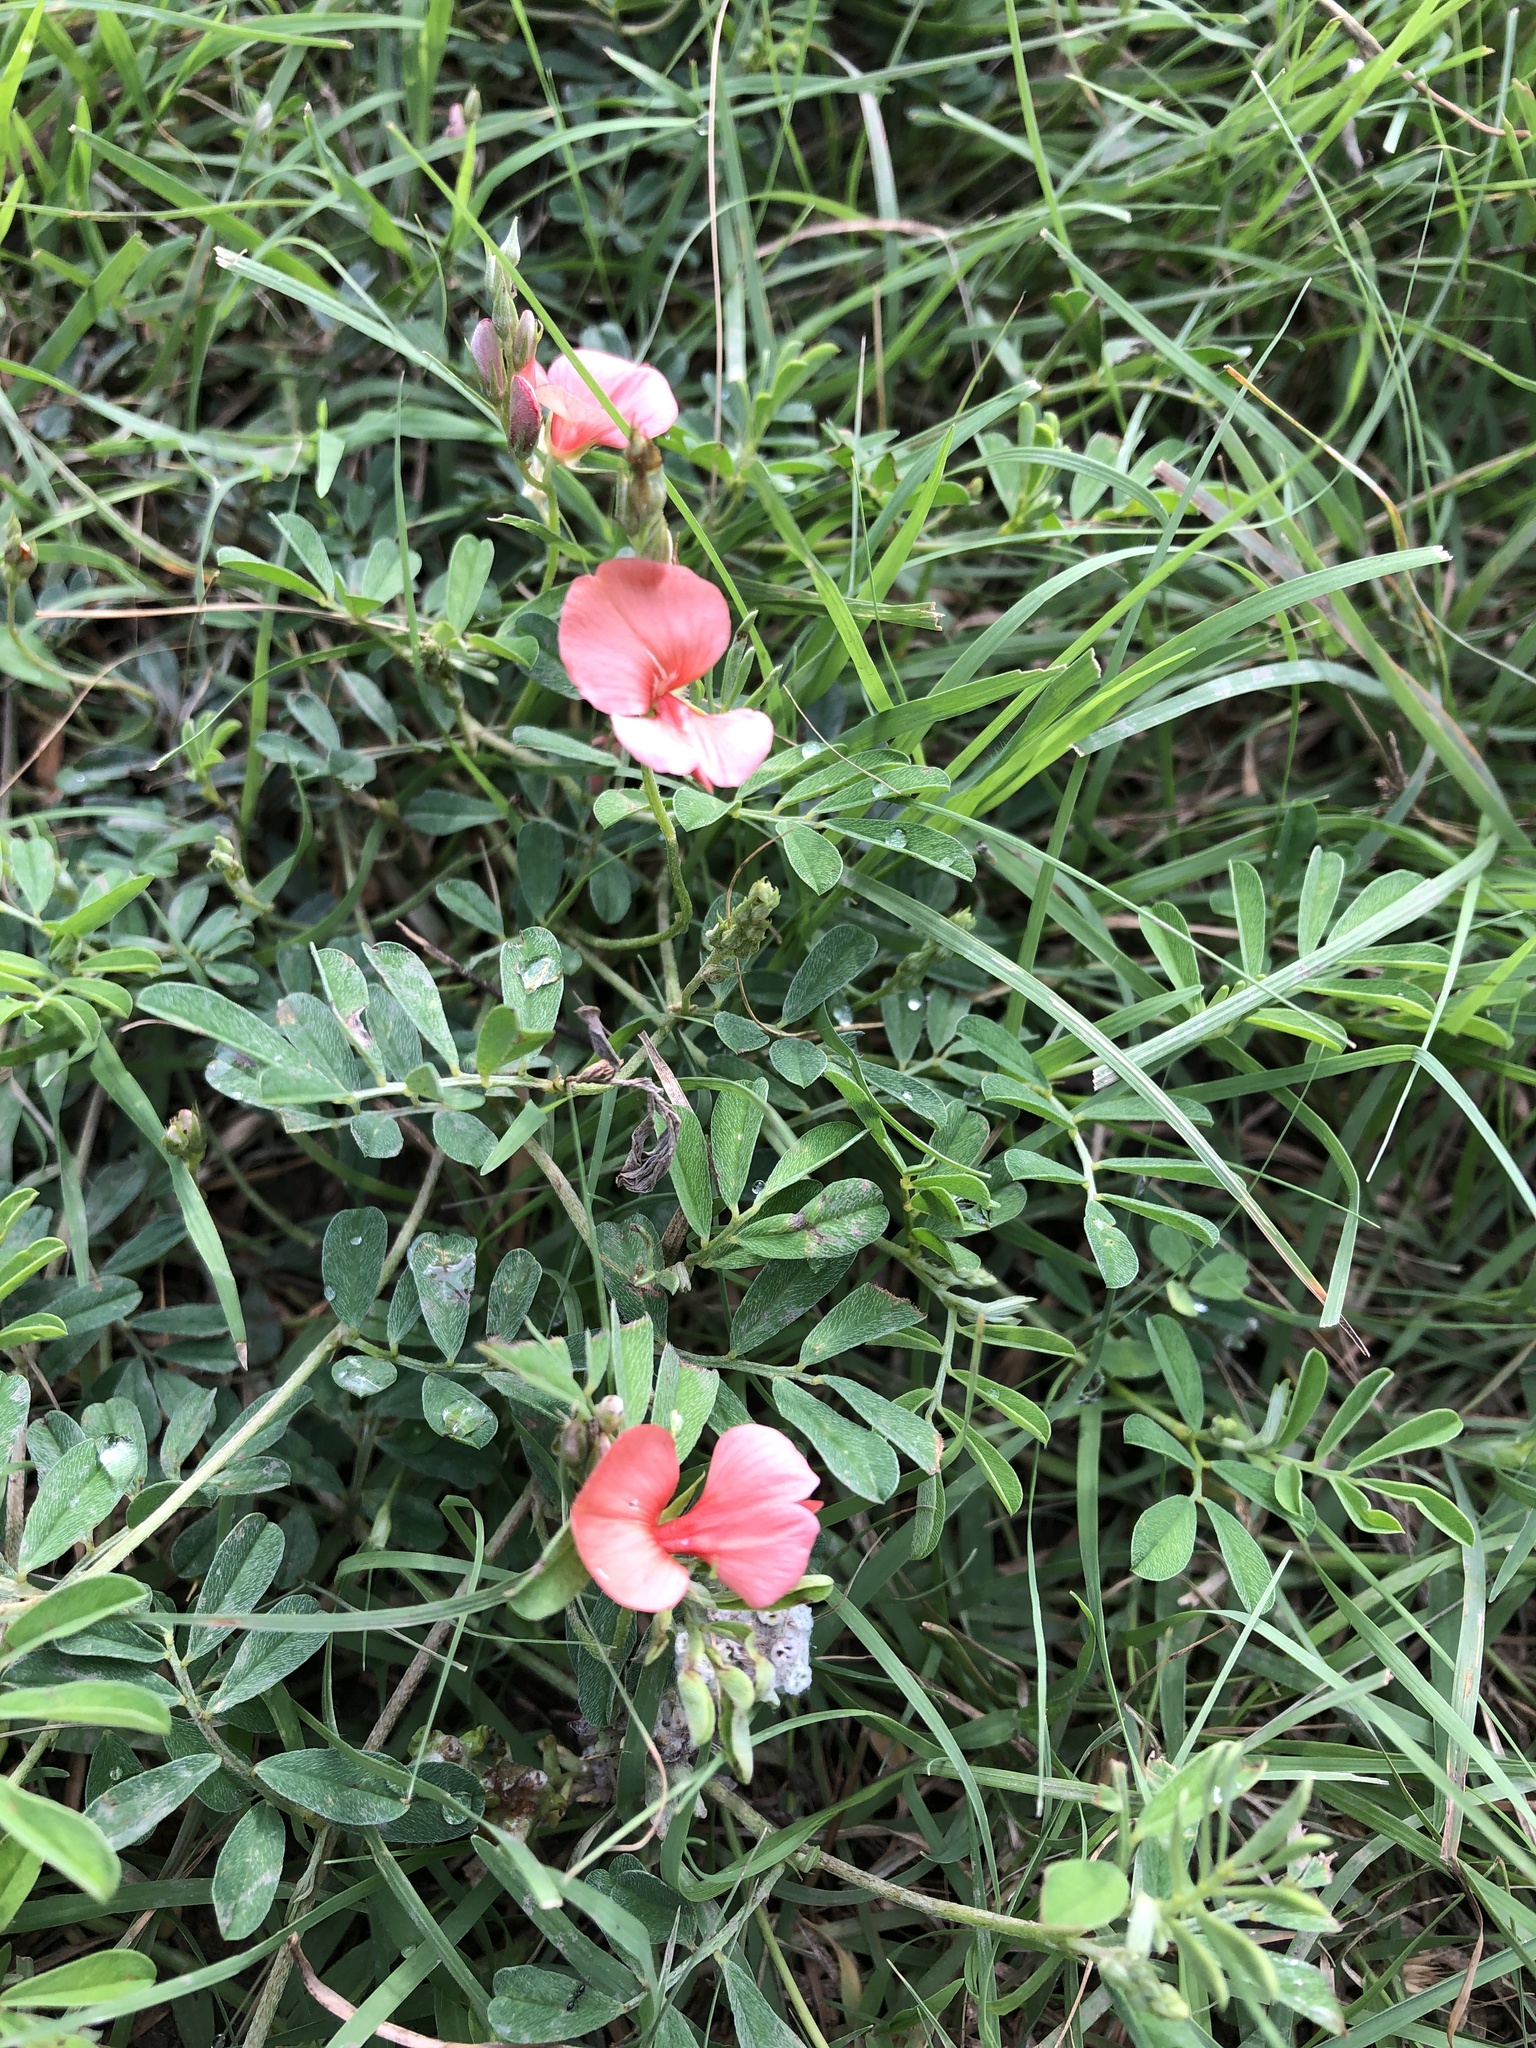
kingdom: Plantae
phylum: Tracheophyta
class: Magnoliopsida
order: Fabales
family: Fabaceae
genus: Indigofera
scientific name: Indigofera miniata
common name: Coast indigo
